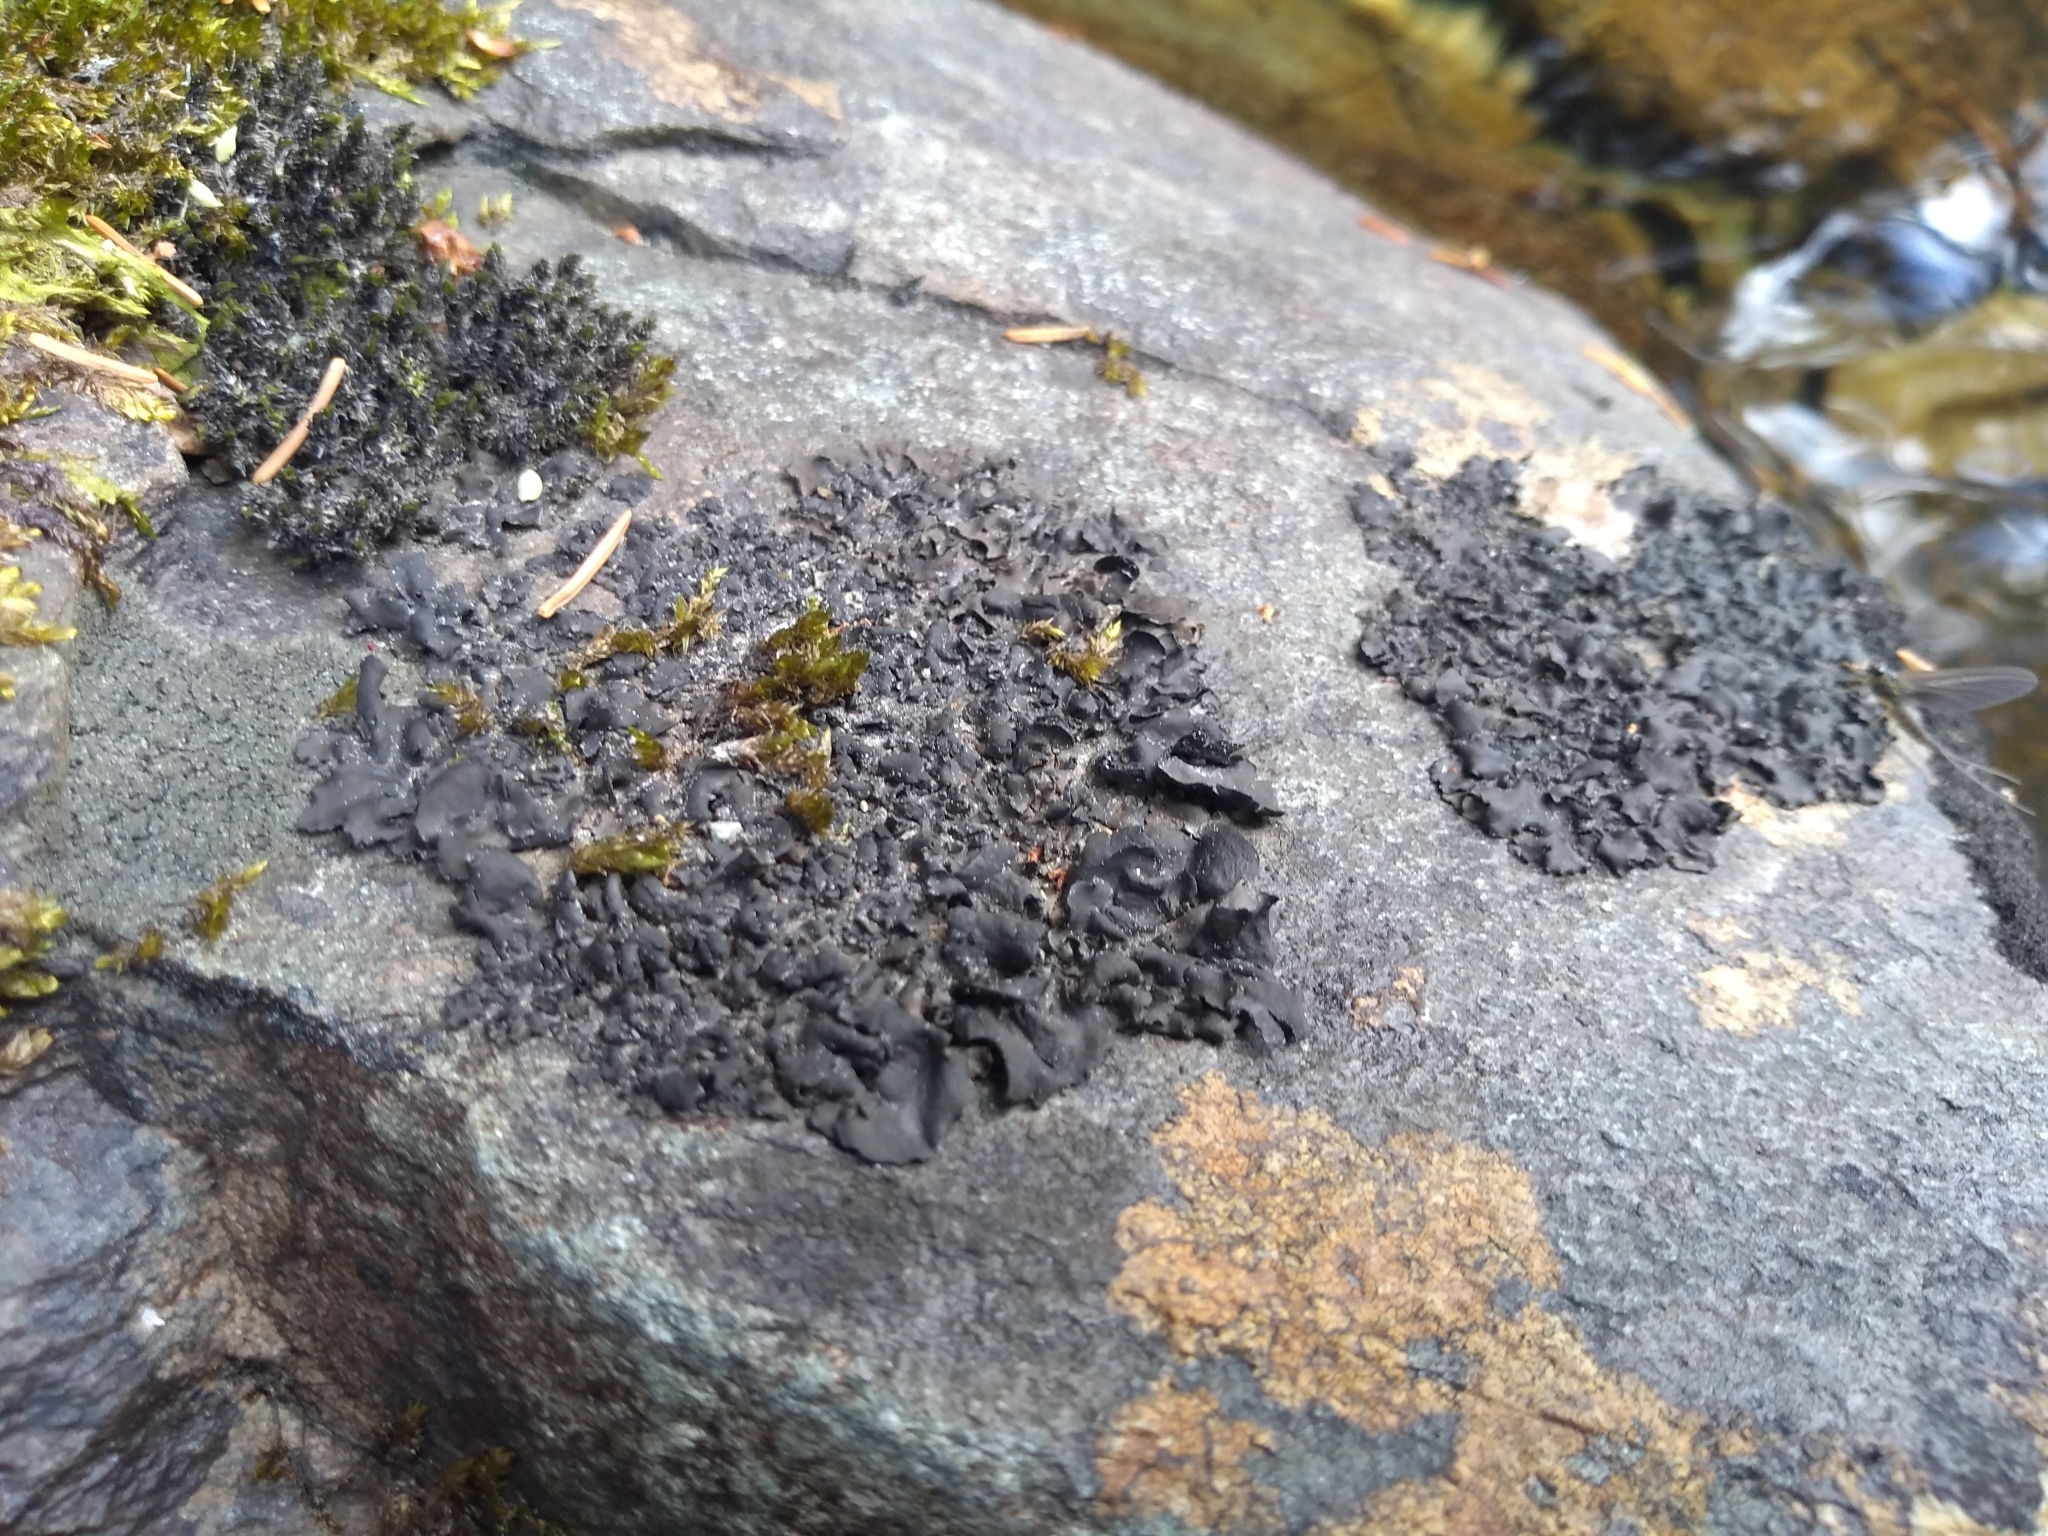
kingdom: Fungi
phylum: Ascomycota
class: Eurotiomycetes
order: Verrucariales
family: Verrucariaceae
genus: Dermatocarpon
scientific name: Dermatocarpon luridum
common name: Brook stippleback lichen
